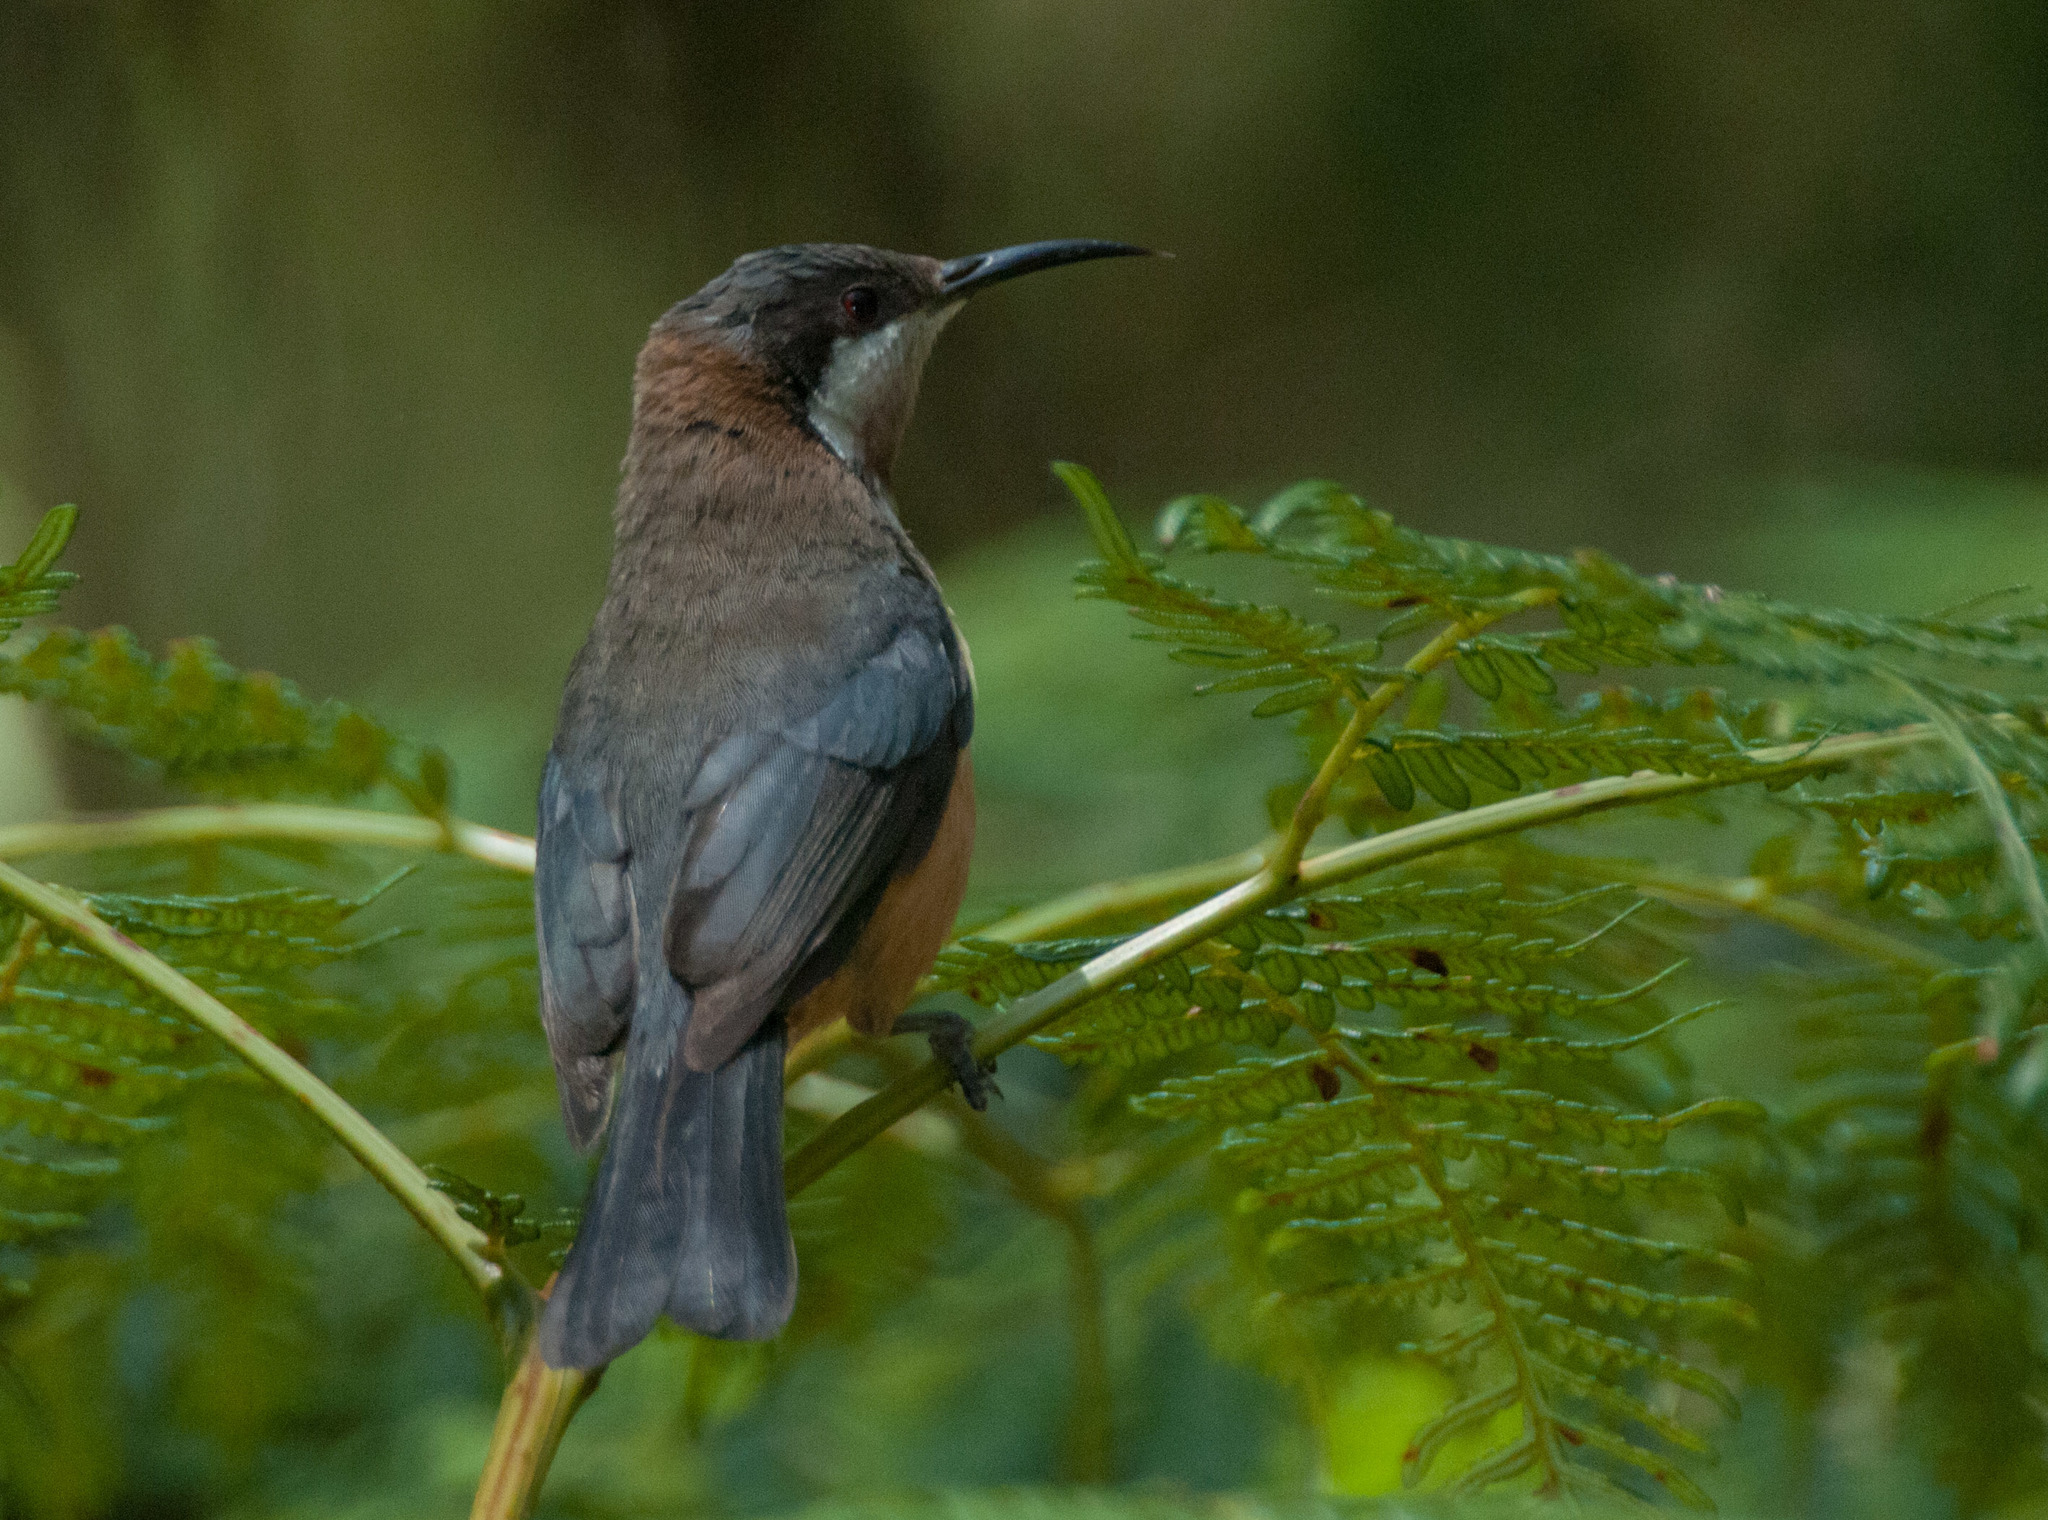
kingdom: Animalia
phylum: Chordata
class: Aves
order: Passeriformes
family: Meliphagidae
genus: Acanthorhynchus
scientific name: Acanthorhynchus tenuirostris
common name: Eastern spinebill
